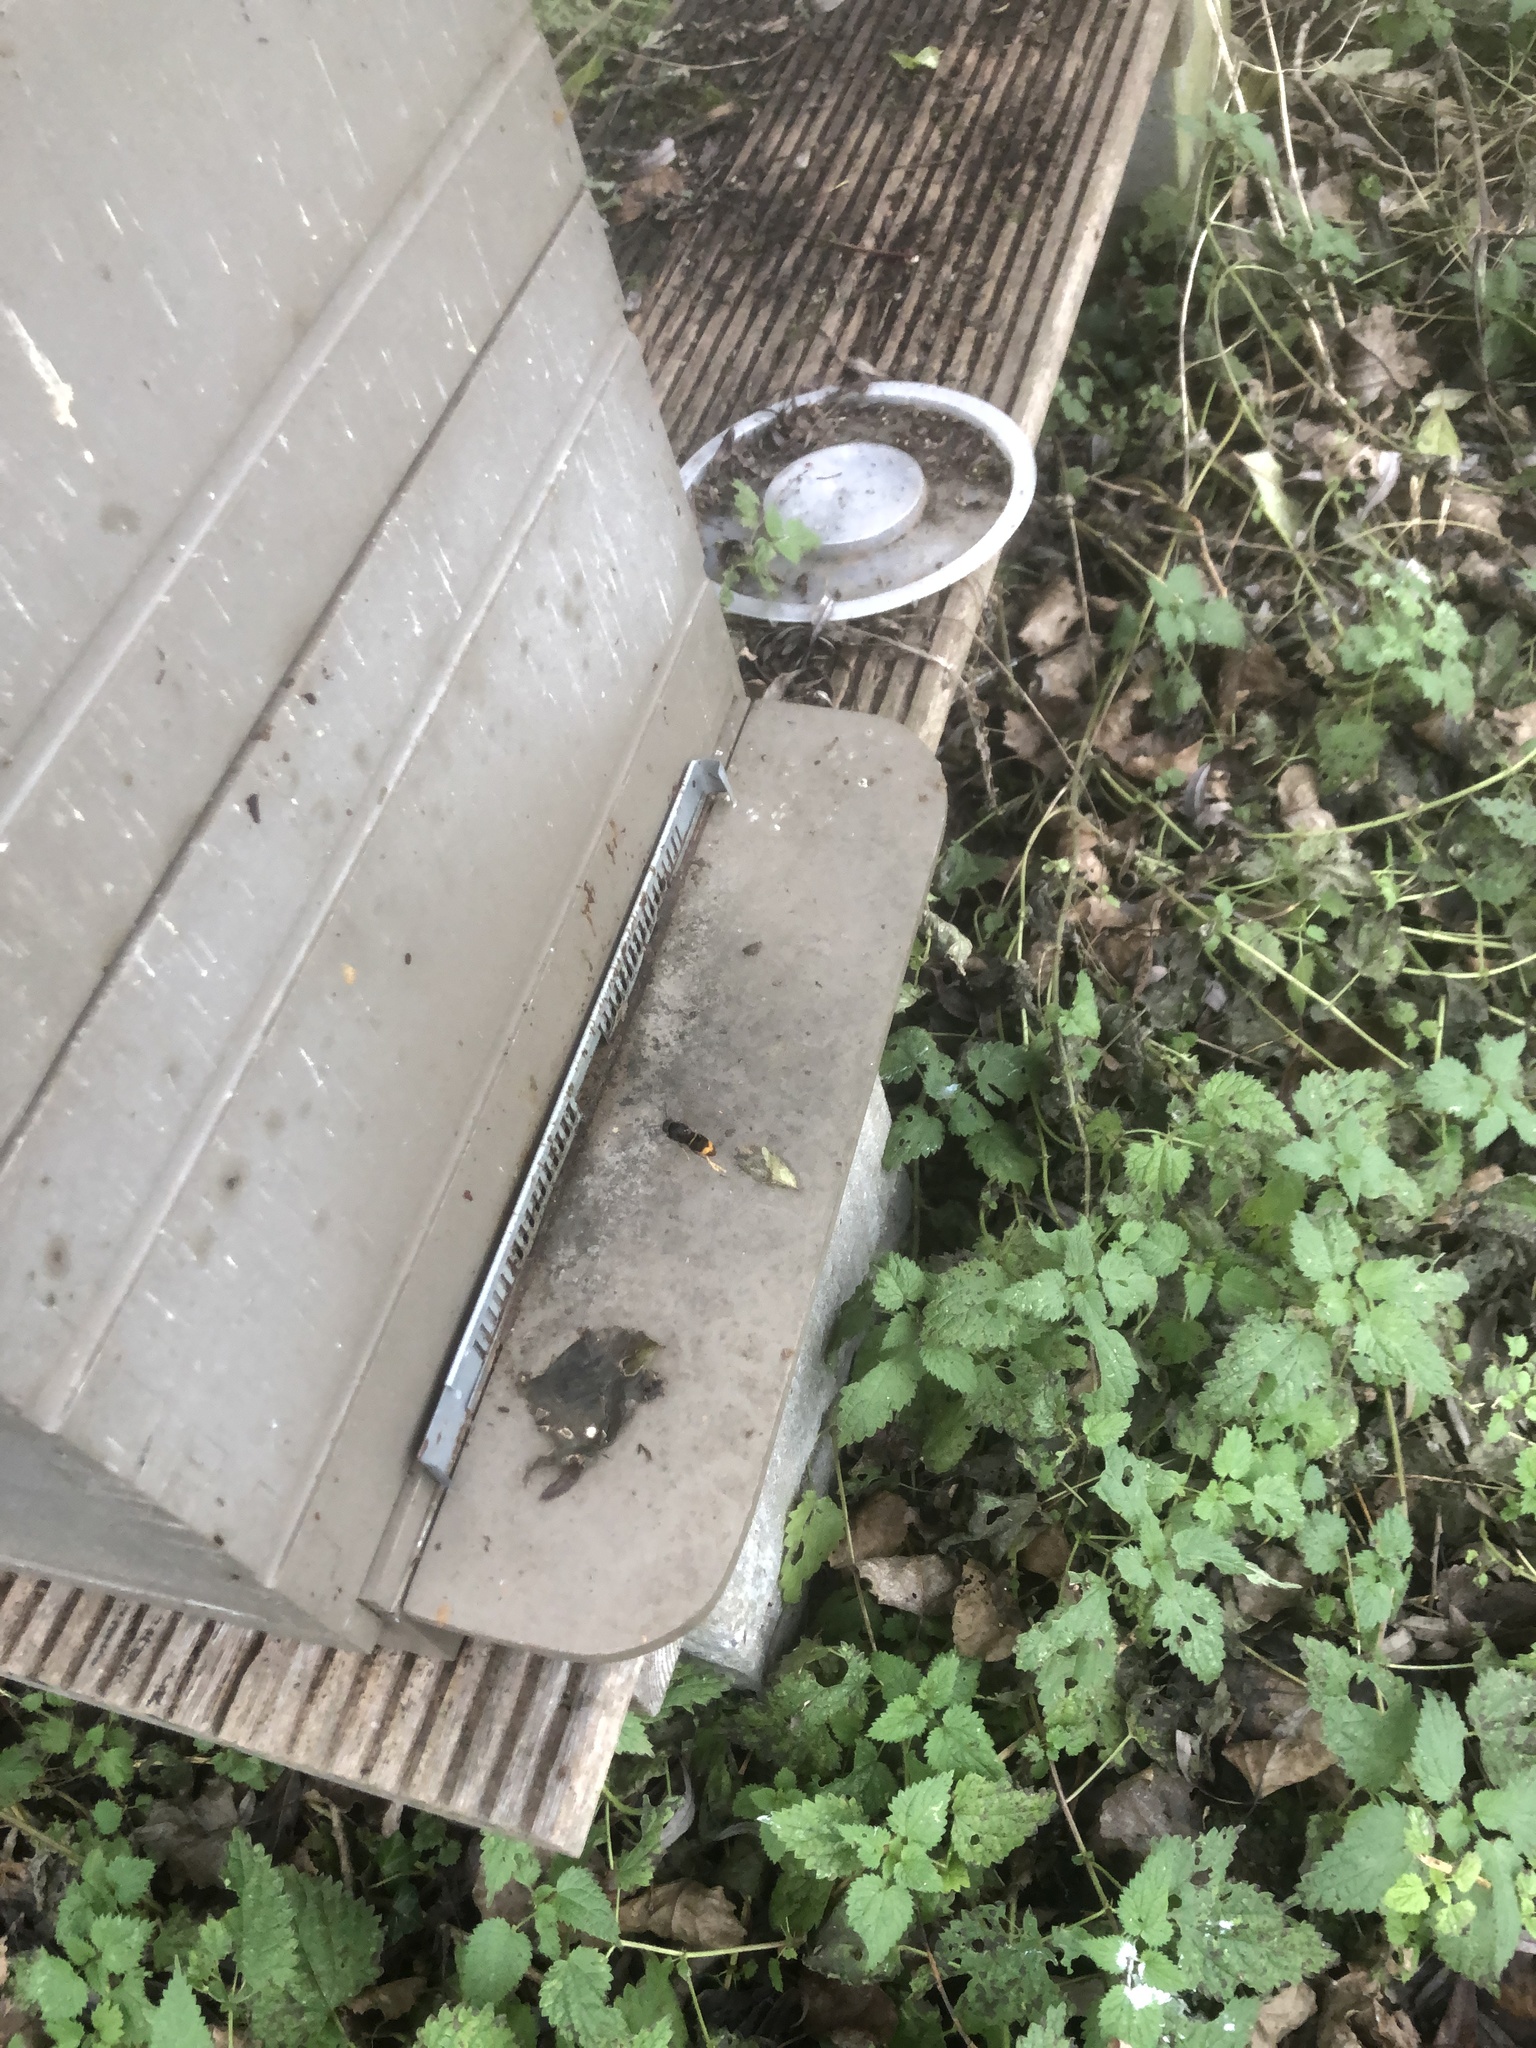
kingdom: Animalia
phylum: Arthropoda
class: Insecta
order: Hymenoptera
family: Vespidae
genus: Vespa
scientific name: Vespa velutina
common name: Asian hornet
